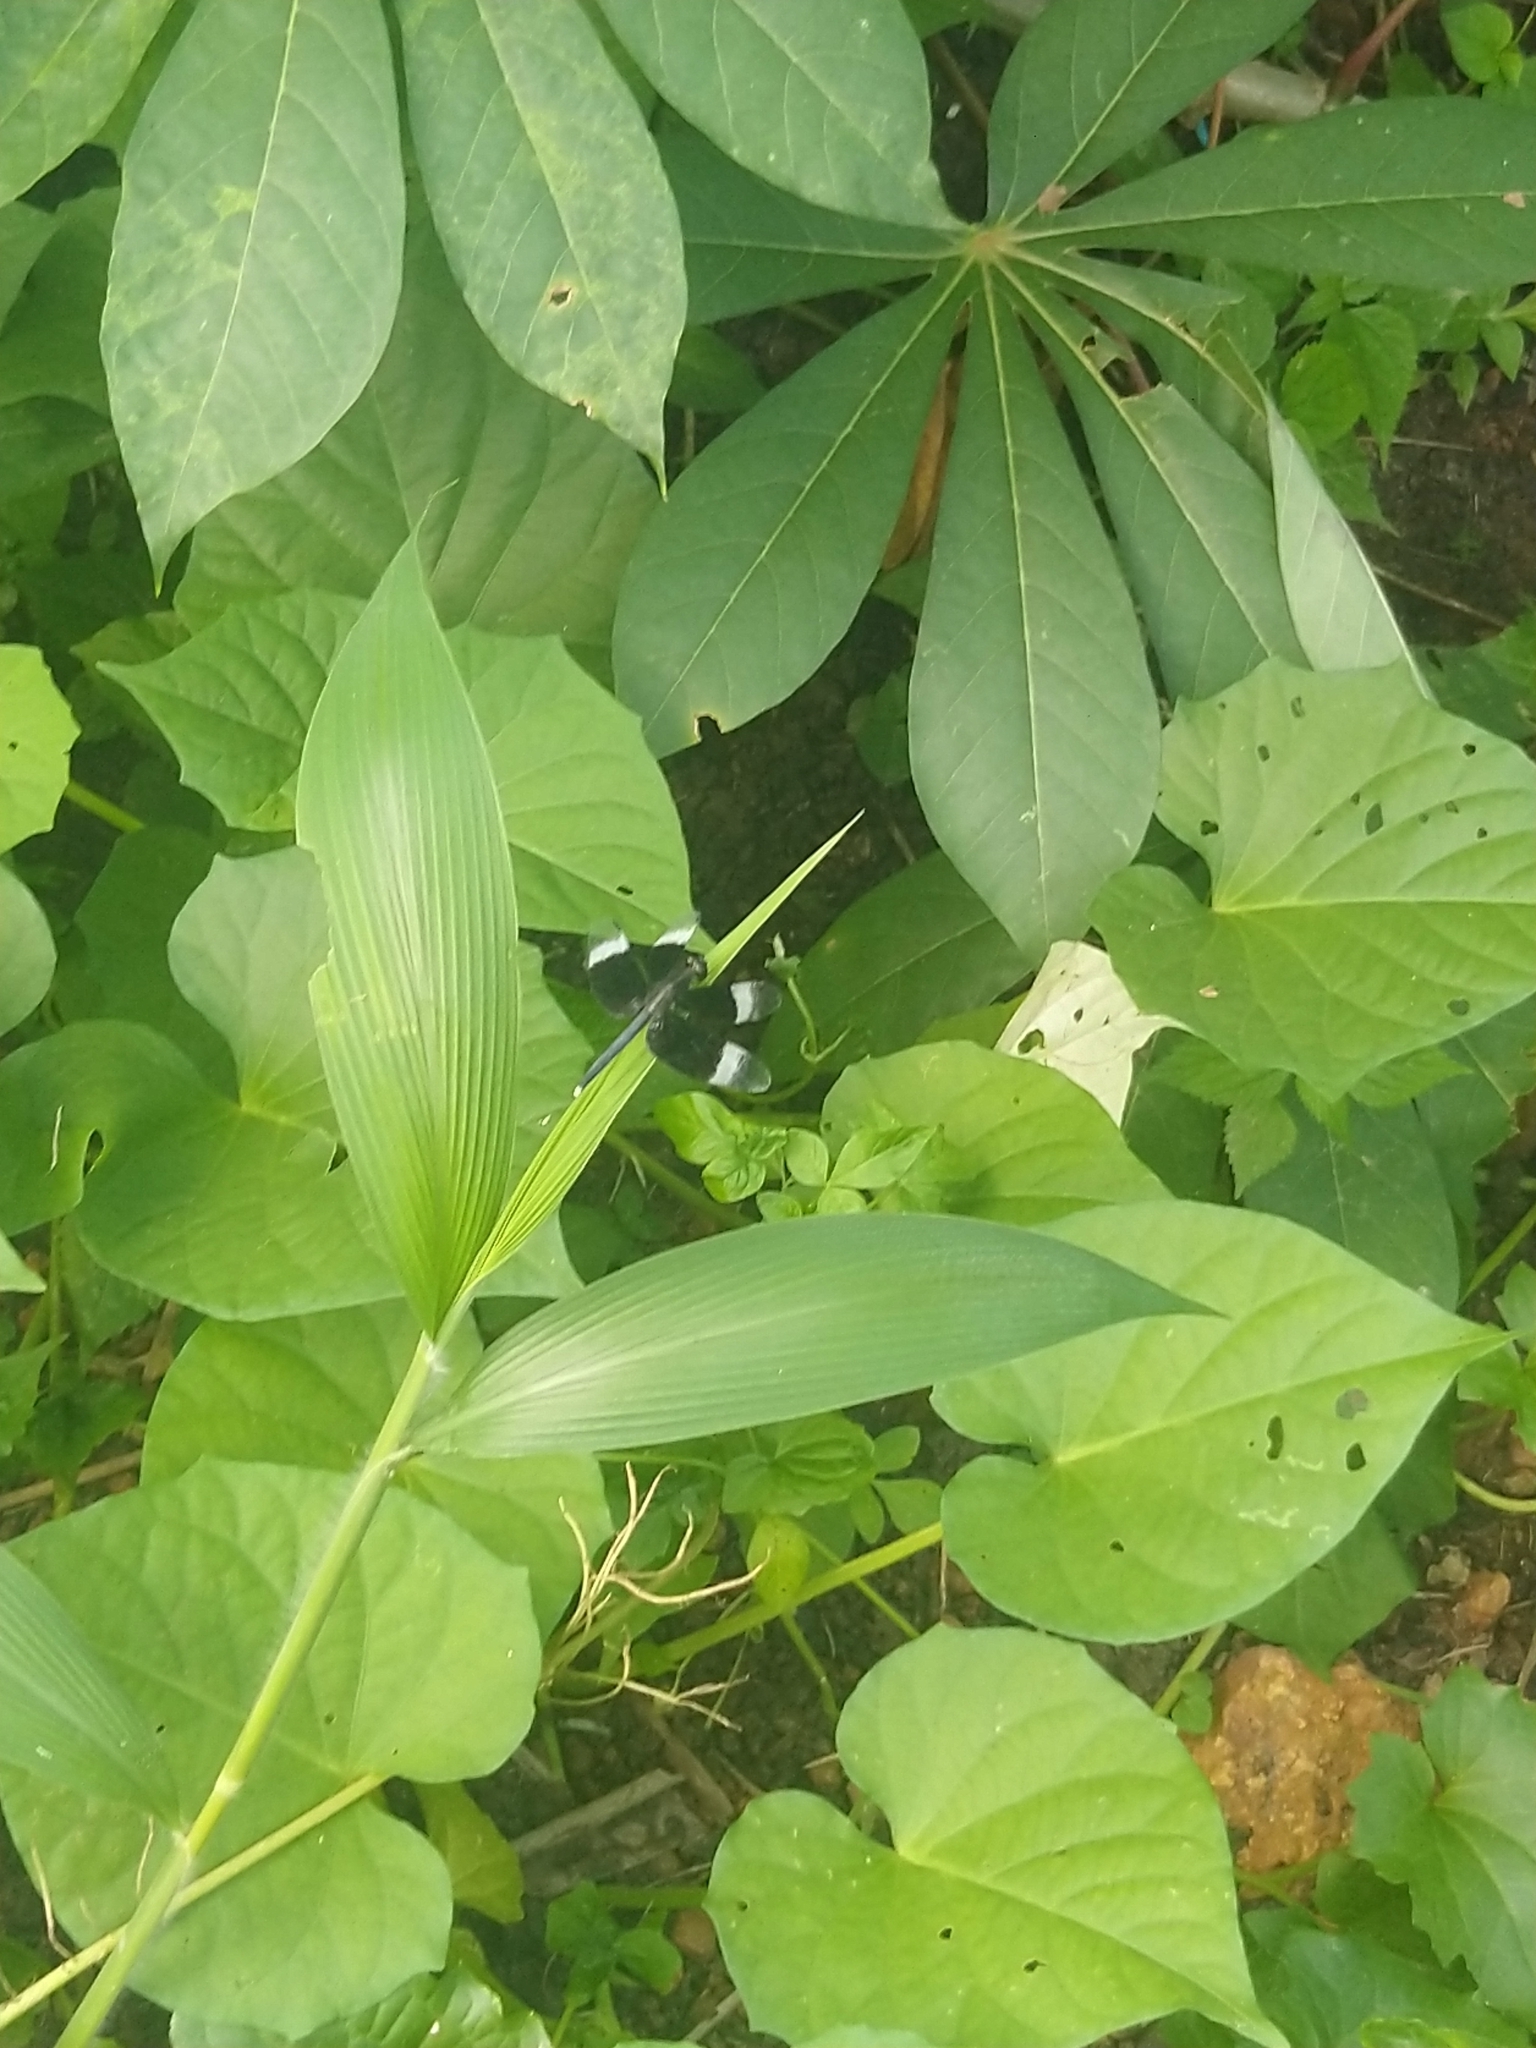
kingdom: Animalia
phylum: Arthropoda
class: Insecta
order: Odonata
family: Libellulidae
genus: Neurothemis
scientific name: Neurothemis tullia
